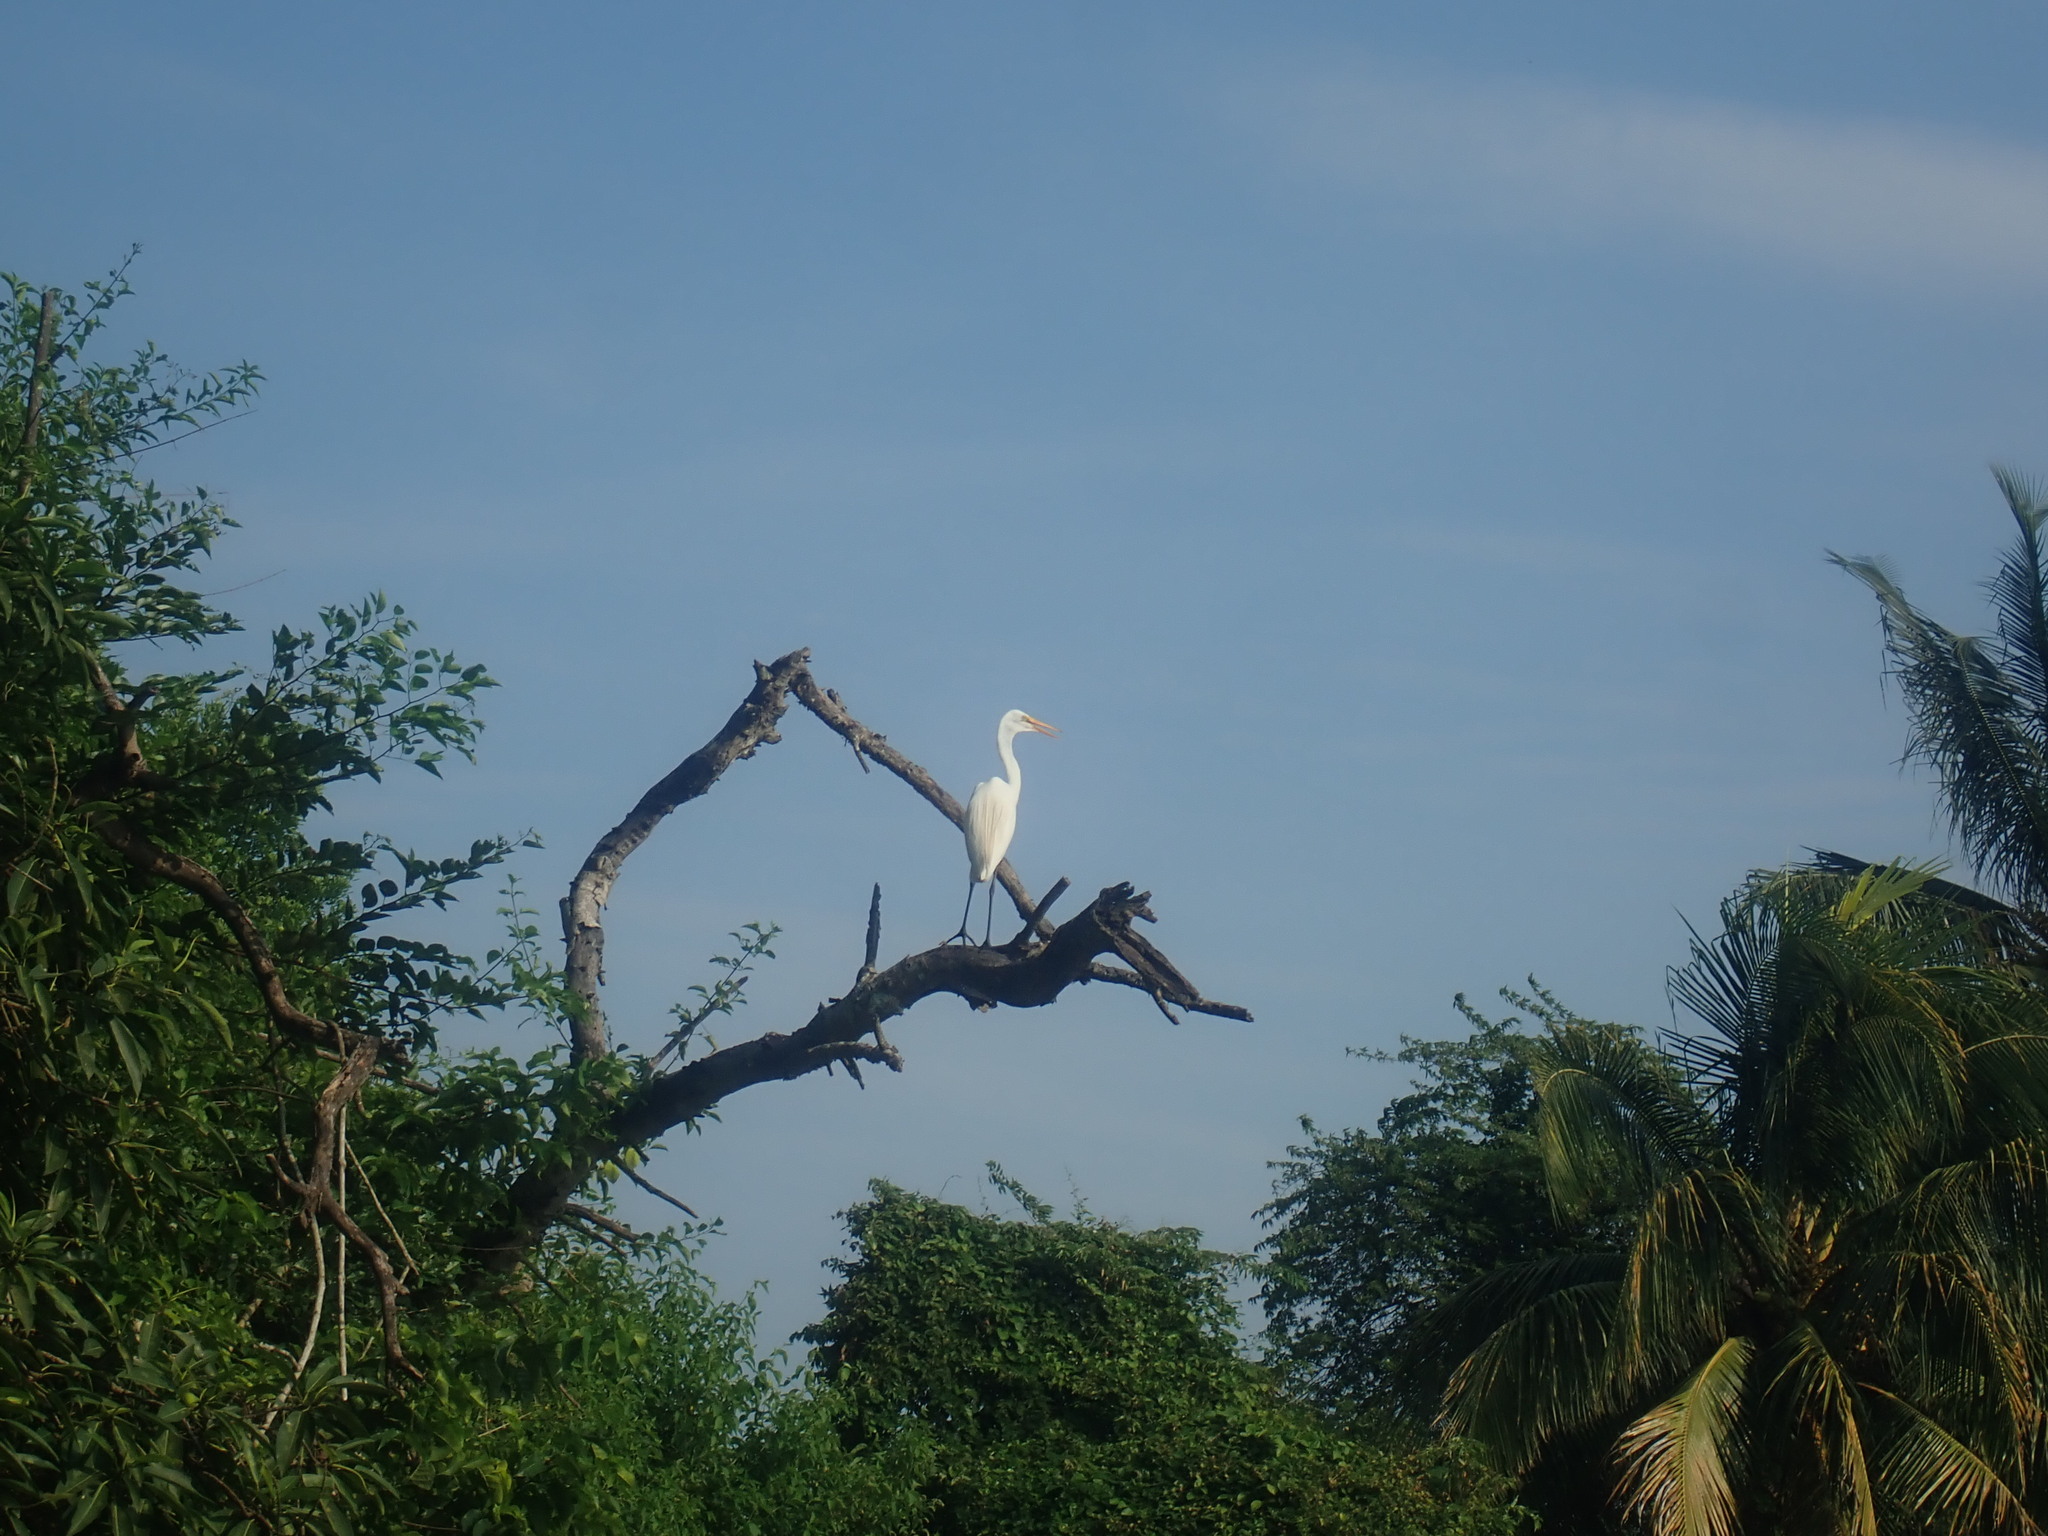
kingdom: Animalia
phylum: Chordata
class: Aves
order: Pelecaniformes
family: Ardeidae
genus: Ardea
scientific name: Ardea alba
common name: Great egret
